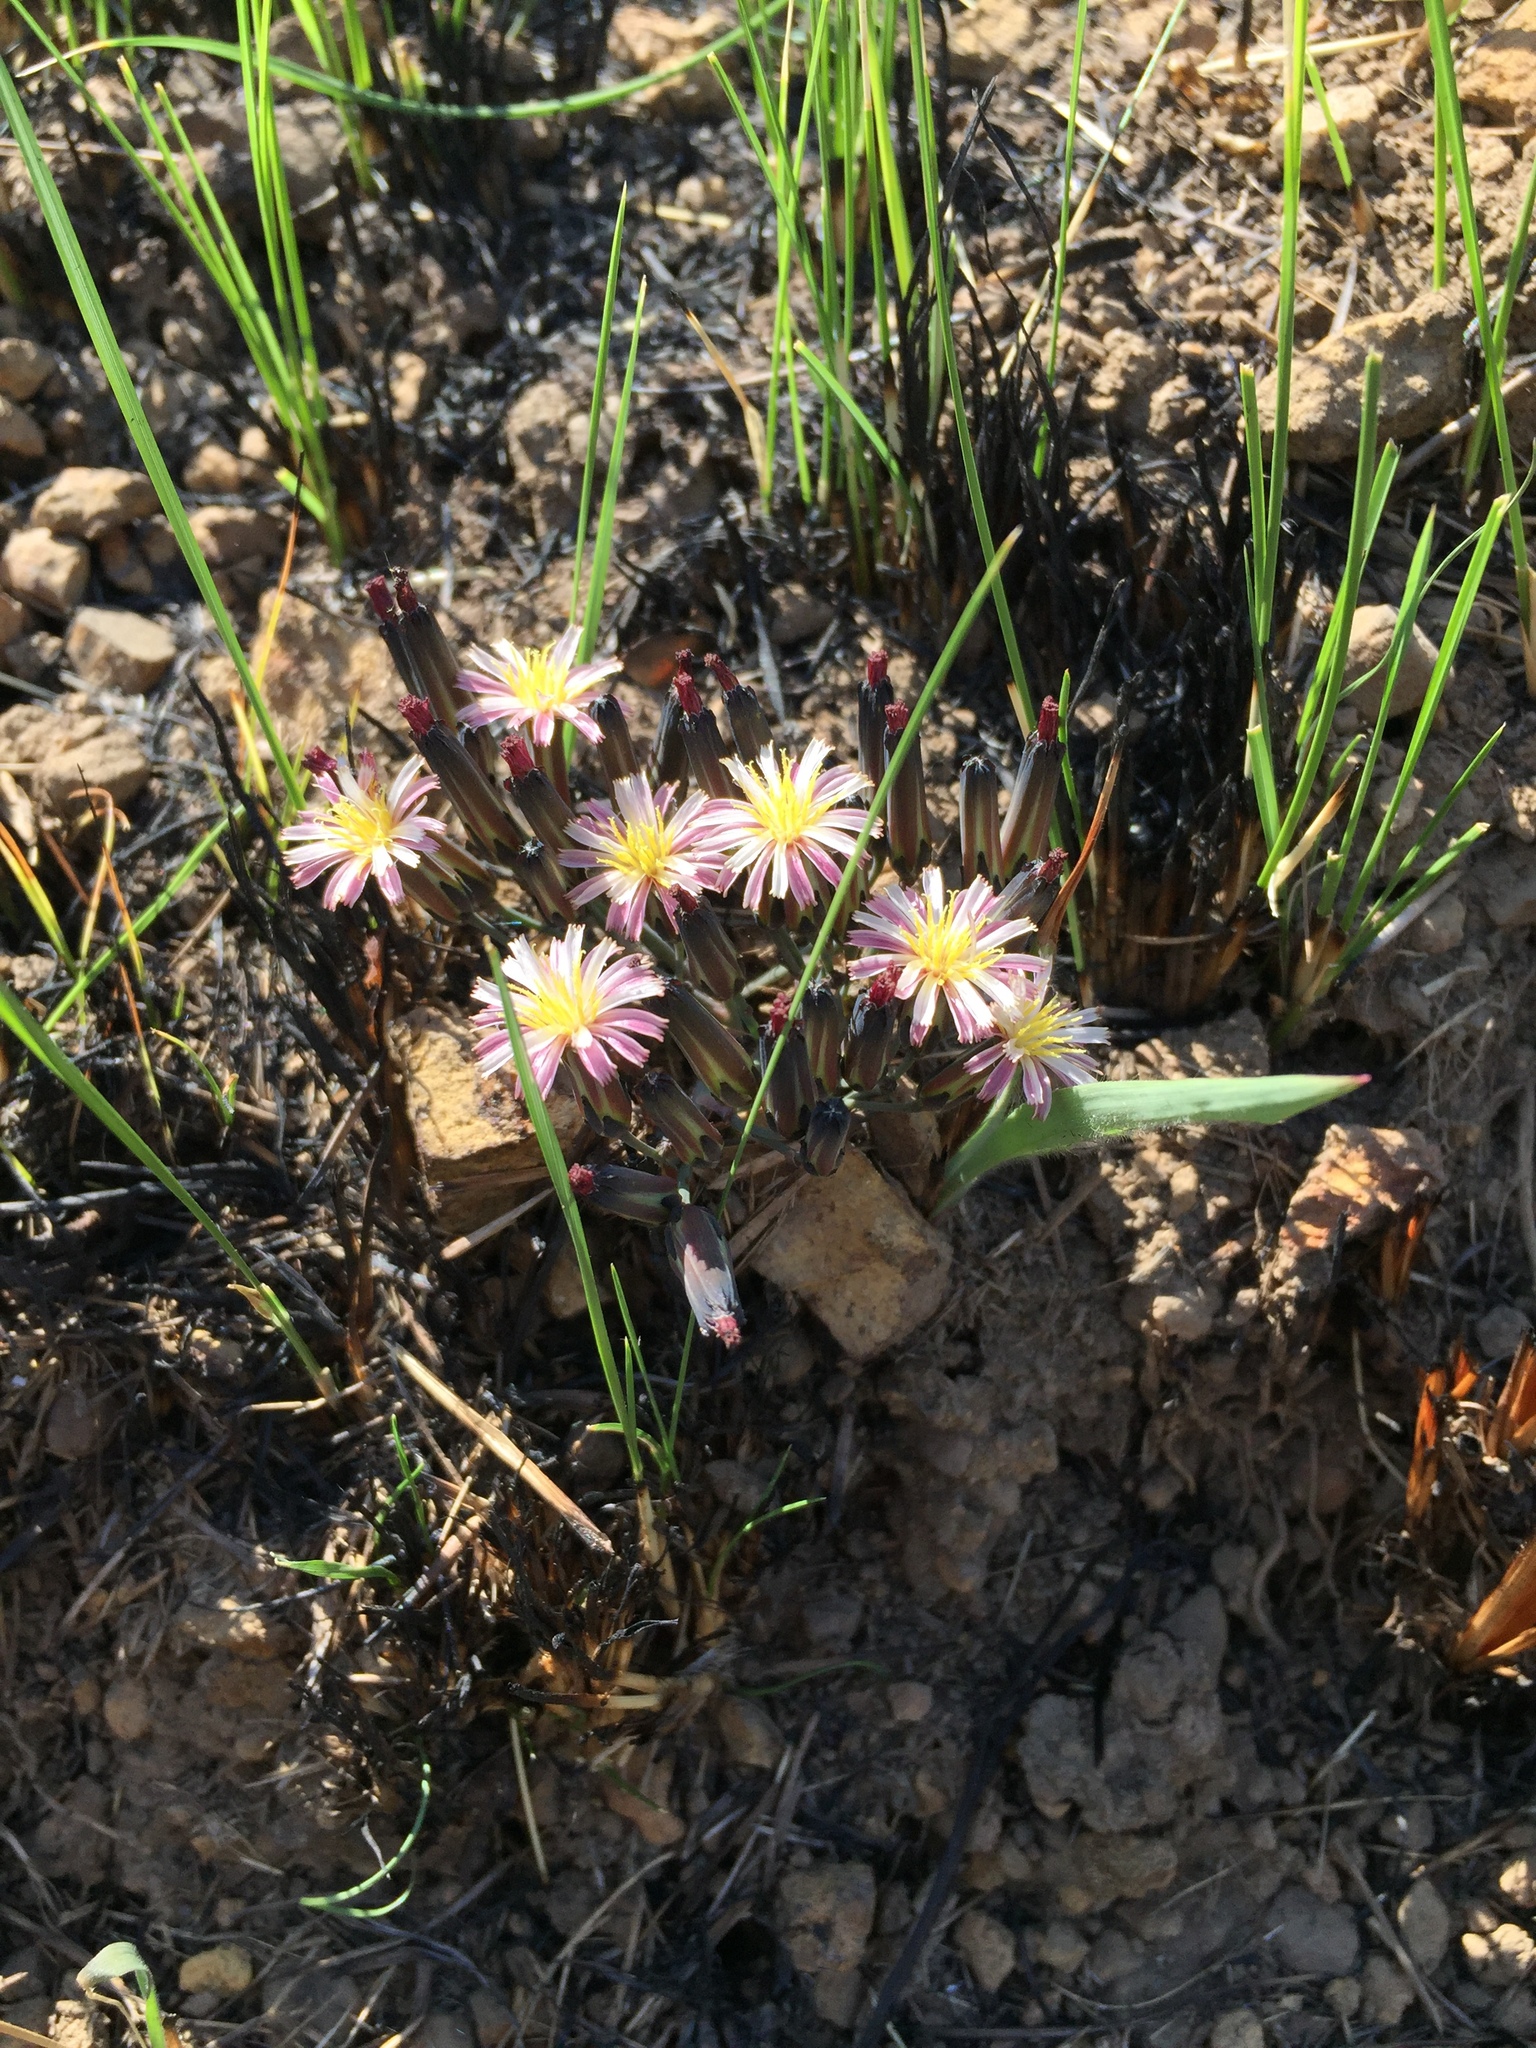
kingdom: Plantae
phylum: Tracheophyta
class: Magnoliopsida
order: Asterales
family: Asteraceae
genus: Launaea
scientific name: Launaea nana
